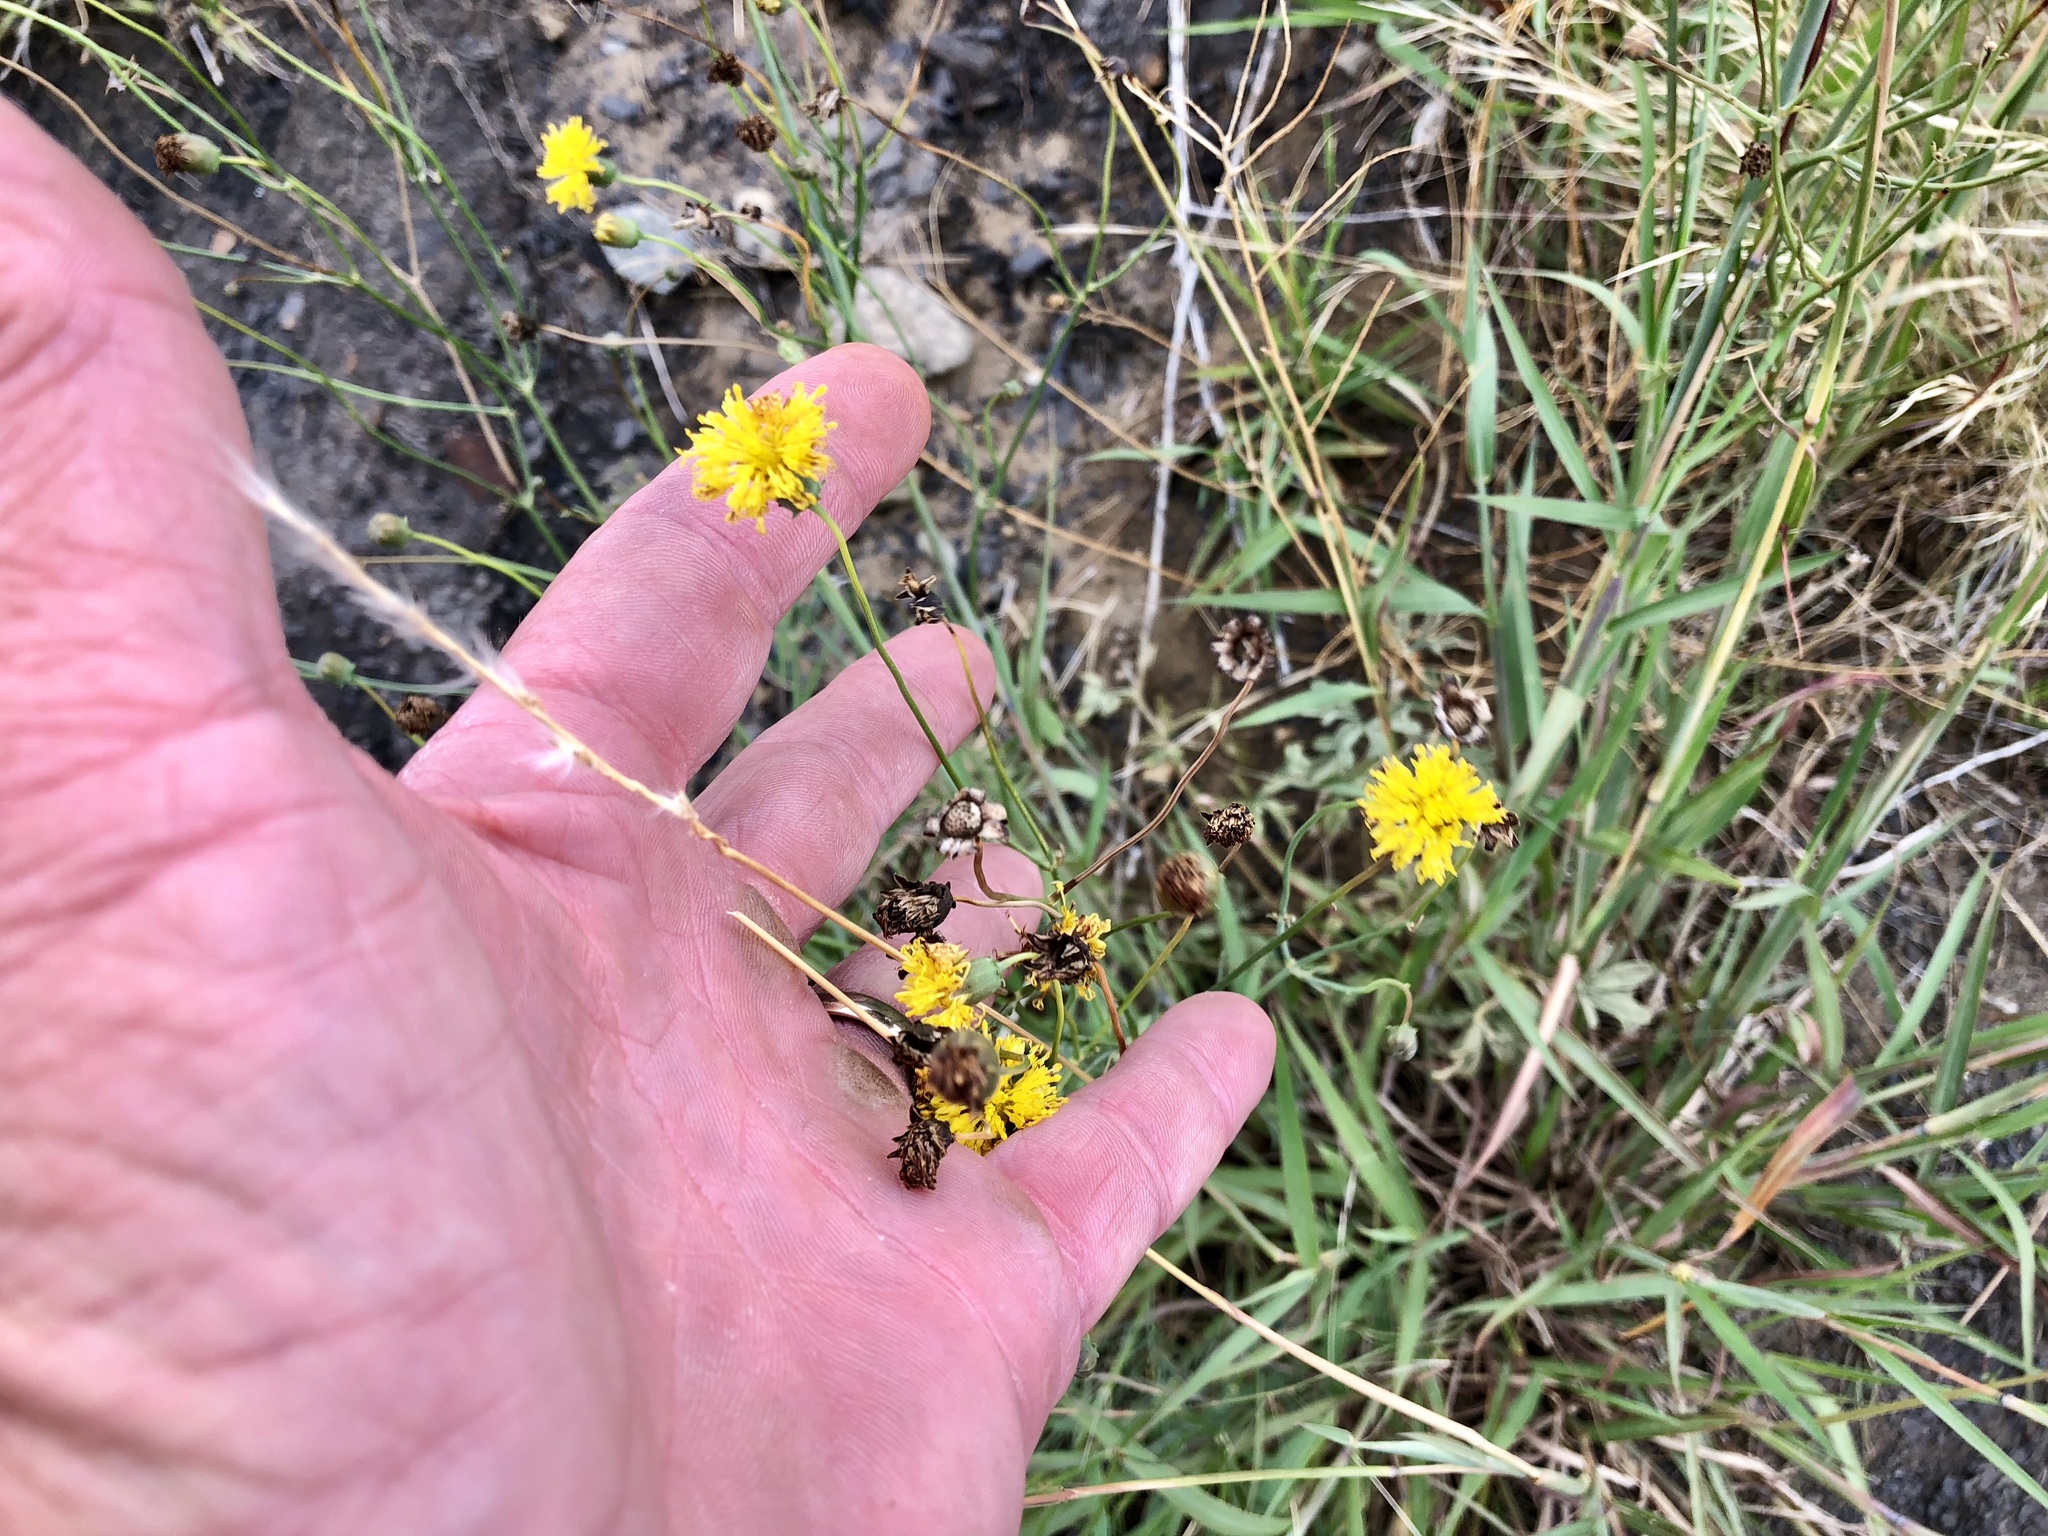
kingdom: Plantae
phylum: Tracheophyta
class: Magnoliopsida
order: Asterales
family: Asteraceae
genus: Thelesperma
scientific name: Thelesperma megapotamicum
